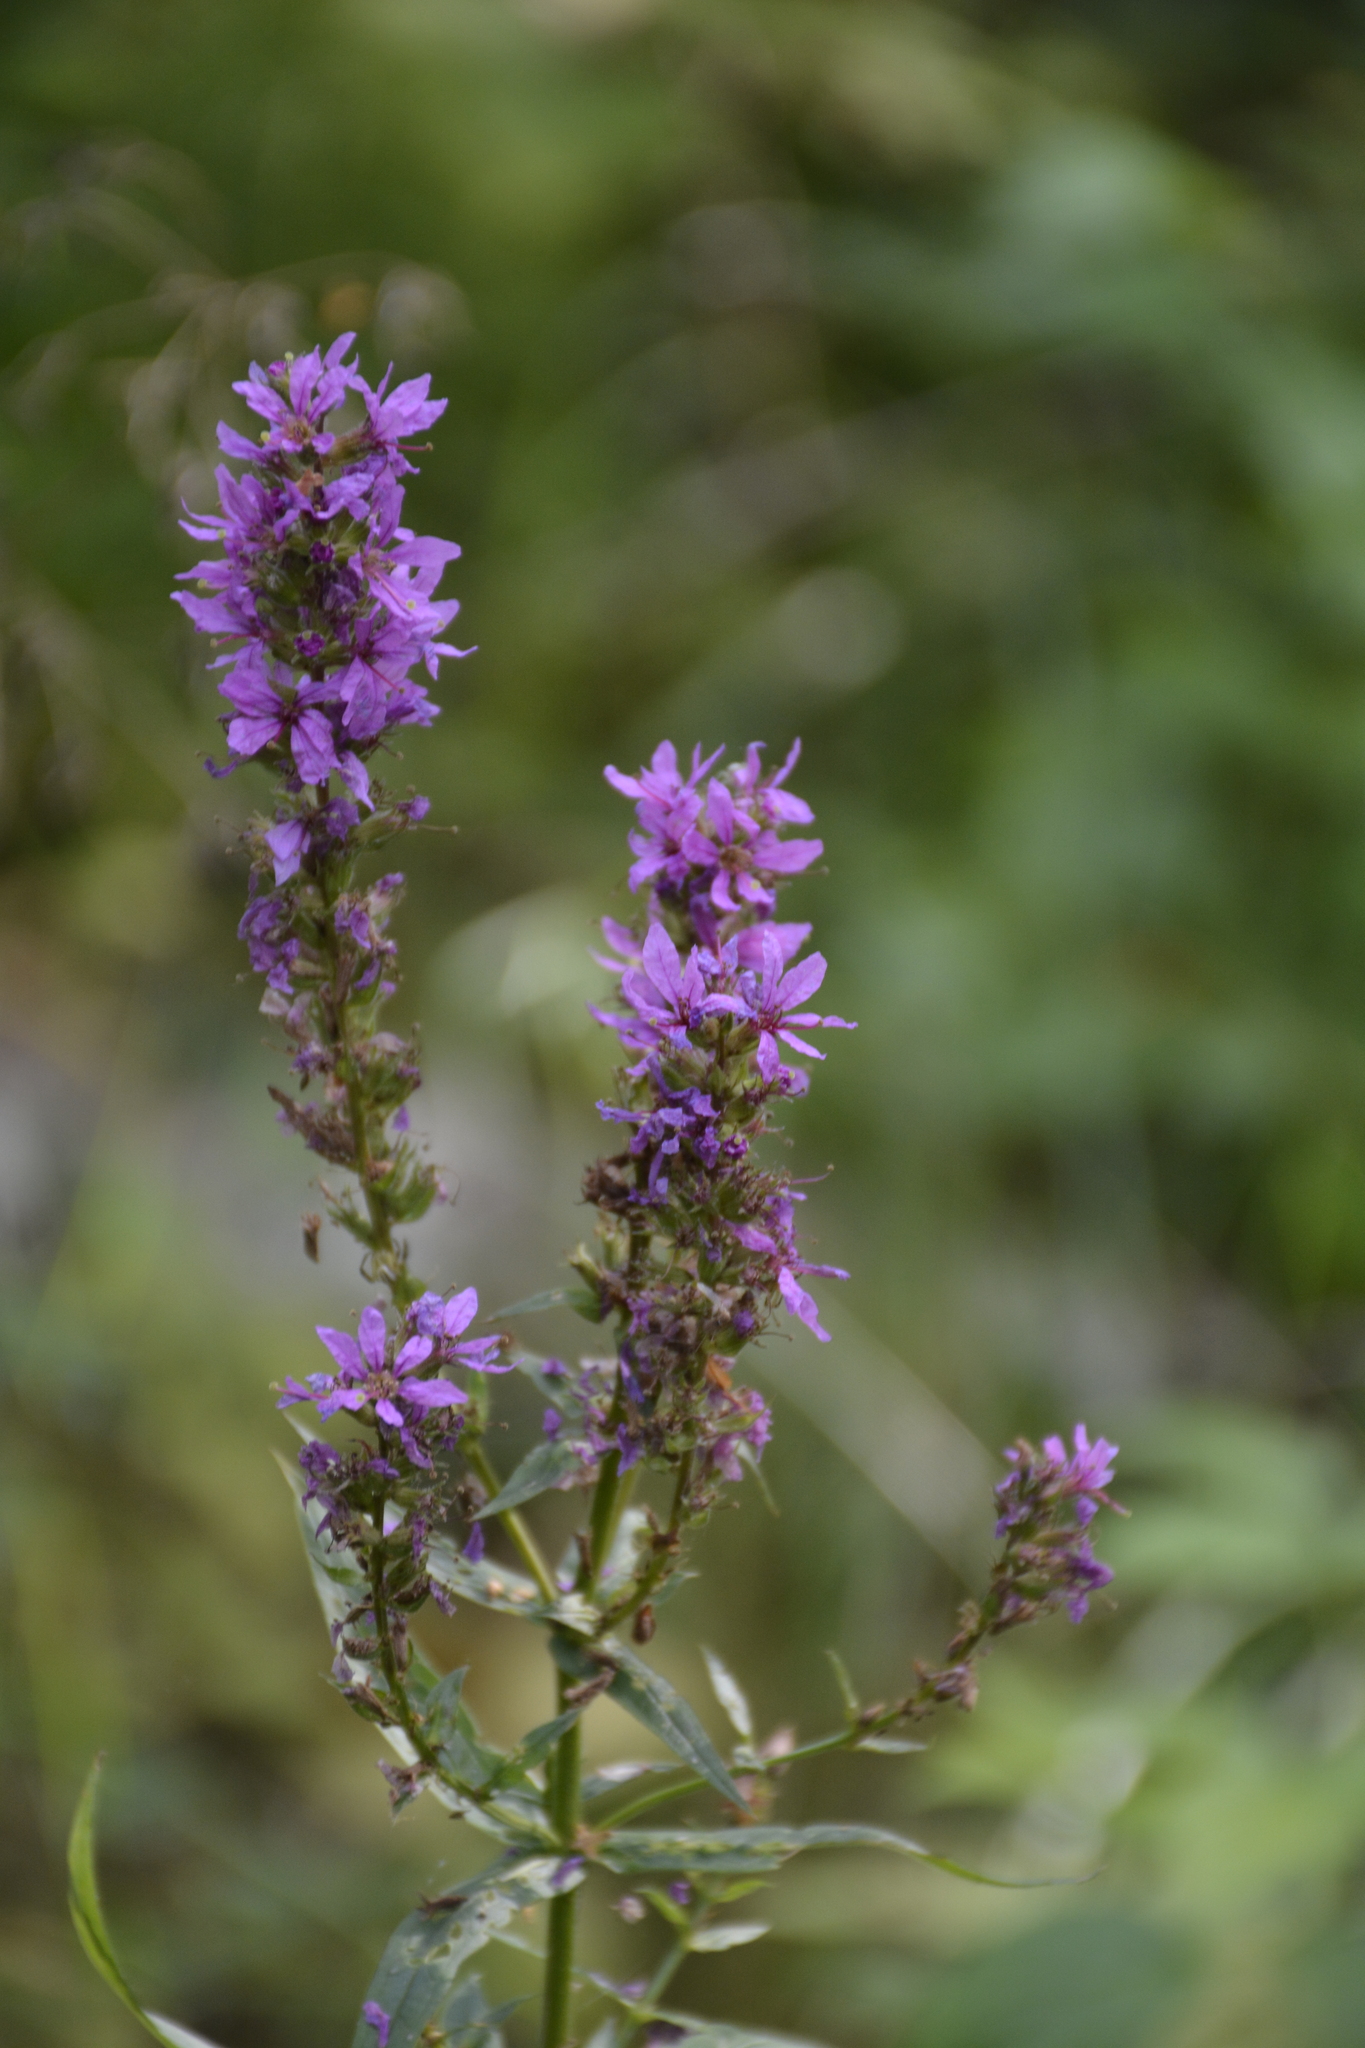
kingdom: Plantae
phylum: Tracheophyta
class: Magnoliopsida
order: Myrtales
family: Lythraceae
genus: Lythrum
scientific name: Lythrum salicaria
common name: Purple loosestrife
